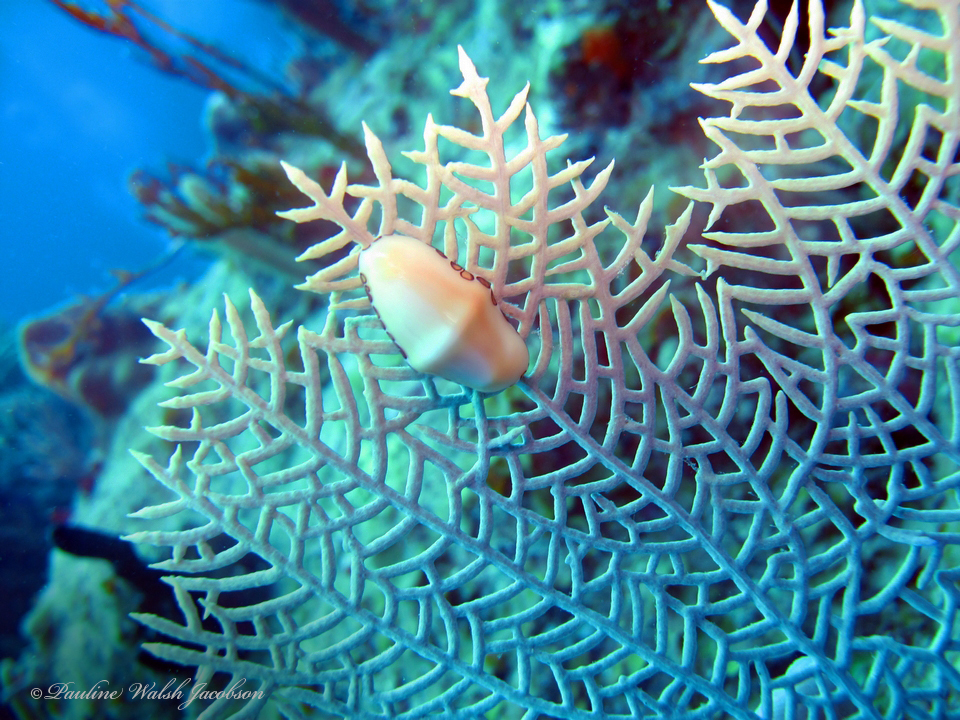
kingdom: Animalia
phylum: Mollusca
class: Gastropoda
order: Littorinimorpha
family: Ovulidae
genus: Cyphoma
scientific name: Cyphoma gibbosum
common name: Flamingo tongue
